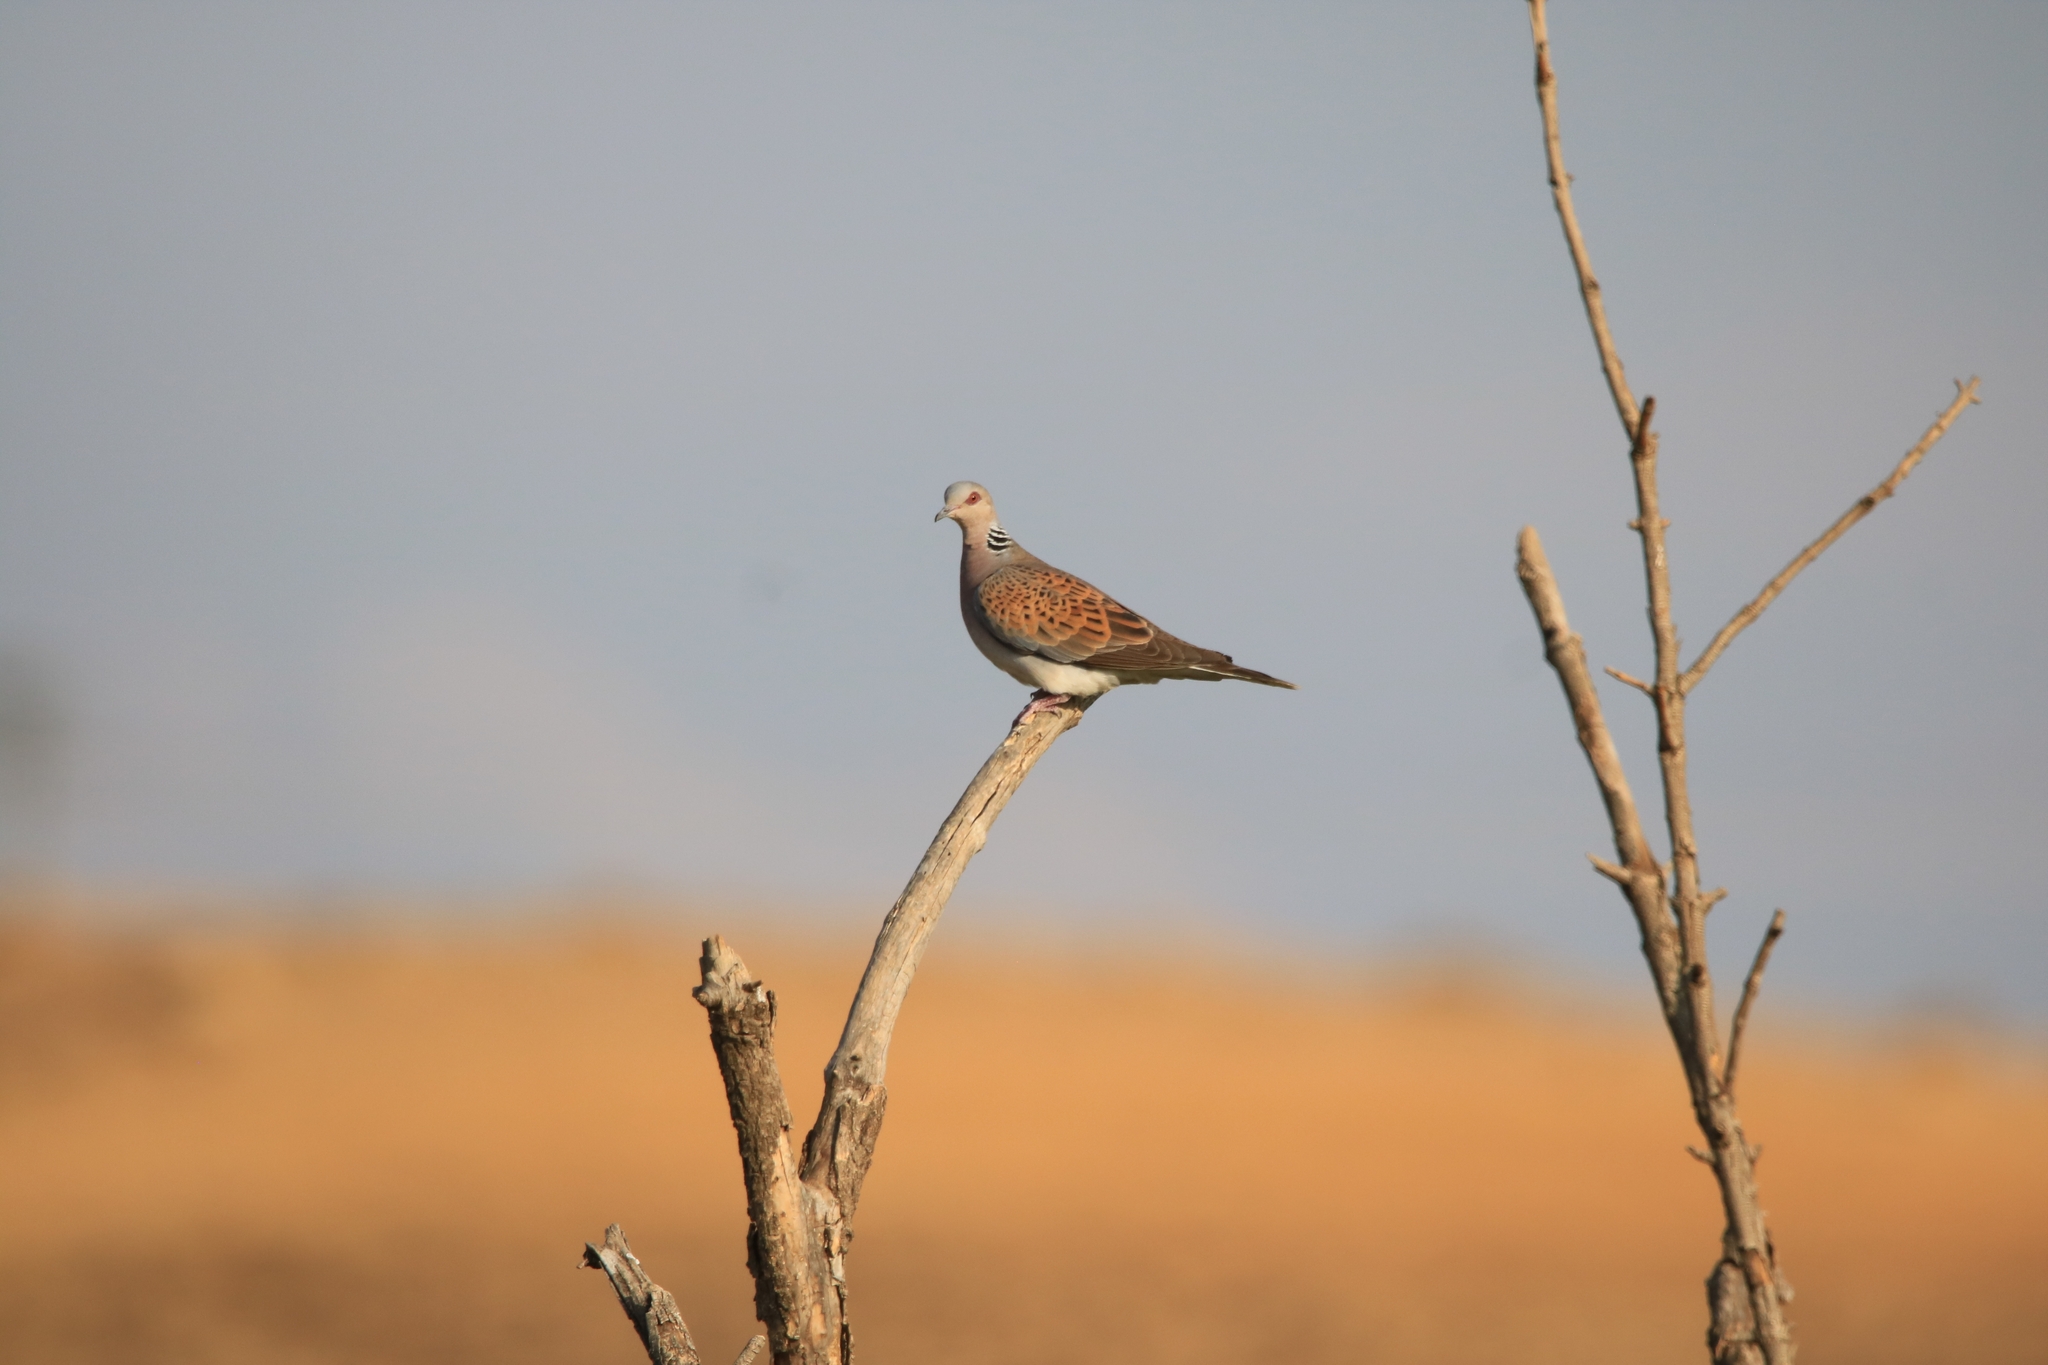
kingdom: Animalia
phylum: Chordata
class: Aves
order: Columbiformes
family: Columbidae
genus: Streptopelia
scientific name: Streptopelia turtur
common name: European turtle dove
